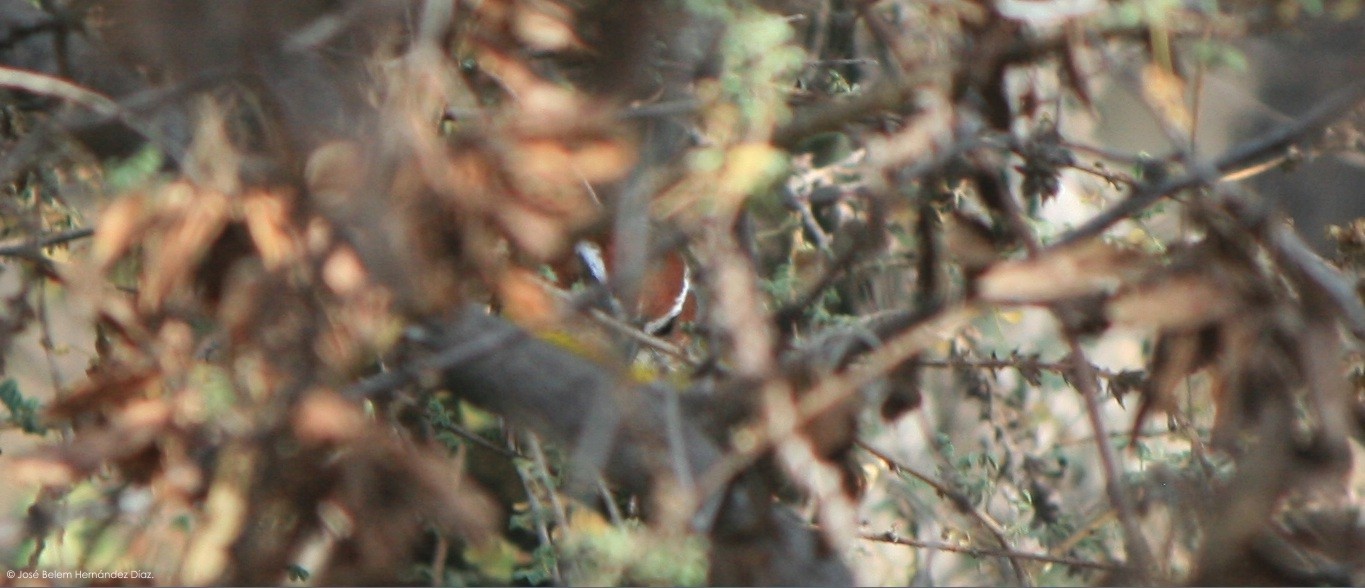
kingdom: Animalia
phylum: Chordata
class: Aves
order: Passeriformes
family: Parulidae
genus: Basileuterus
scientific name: Basileuterus rufifrons
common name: Rufous-capped warbler
